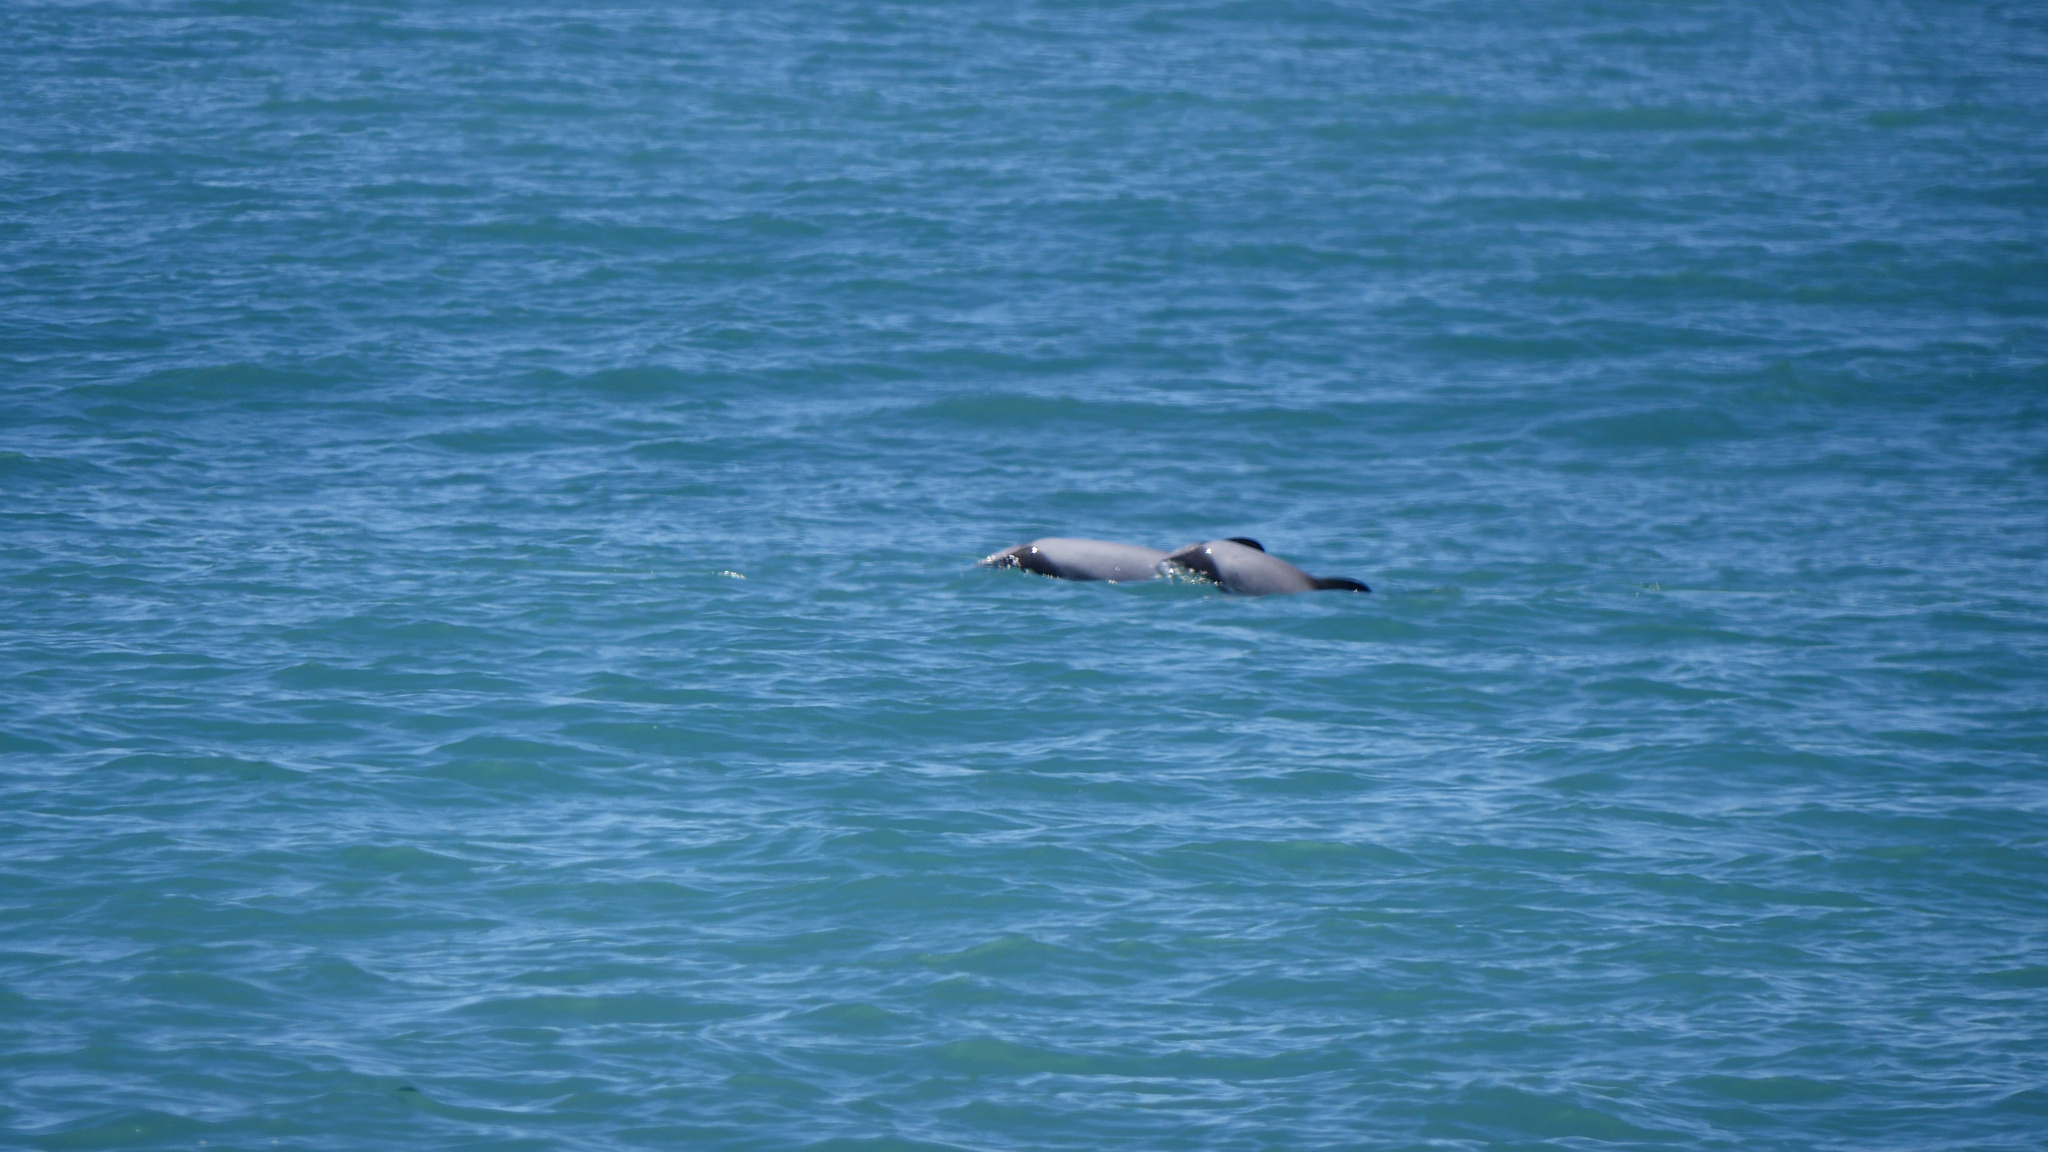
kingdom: Animalia
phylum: Chordata
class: Mammalia
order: Cetacea
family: Delphinidae
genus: Cephalorhynchus
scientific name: Cephalorhynchus hectori
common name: Hector's dolphin
